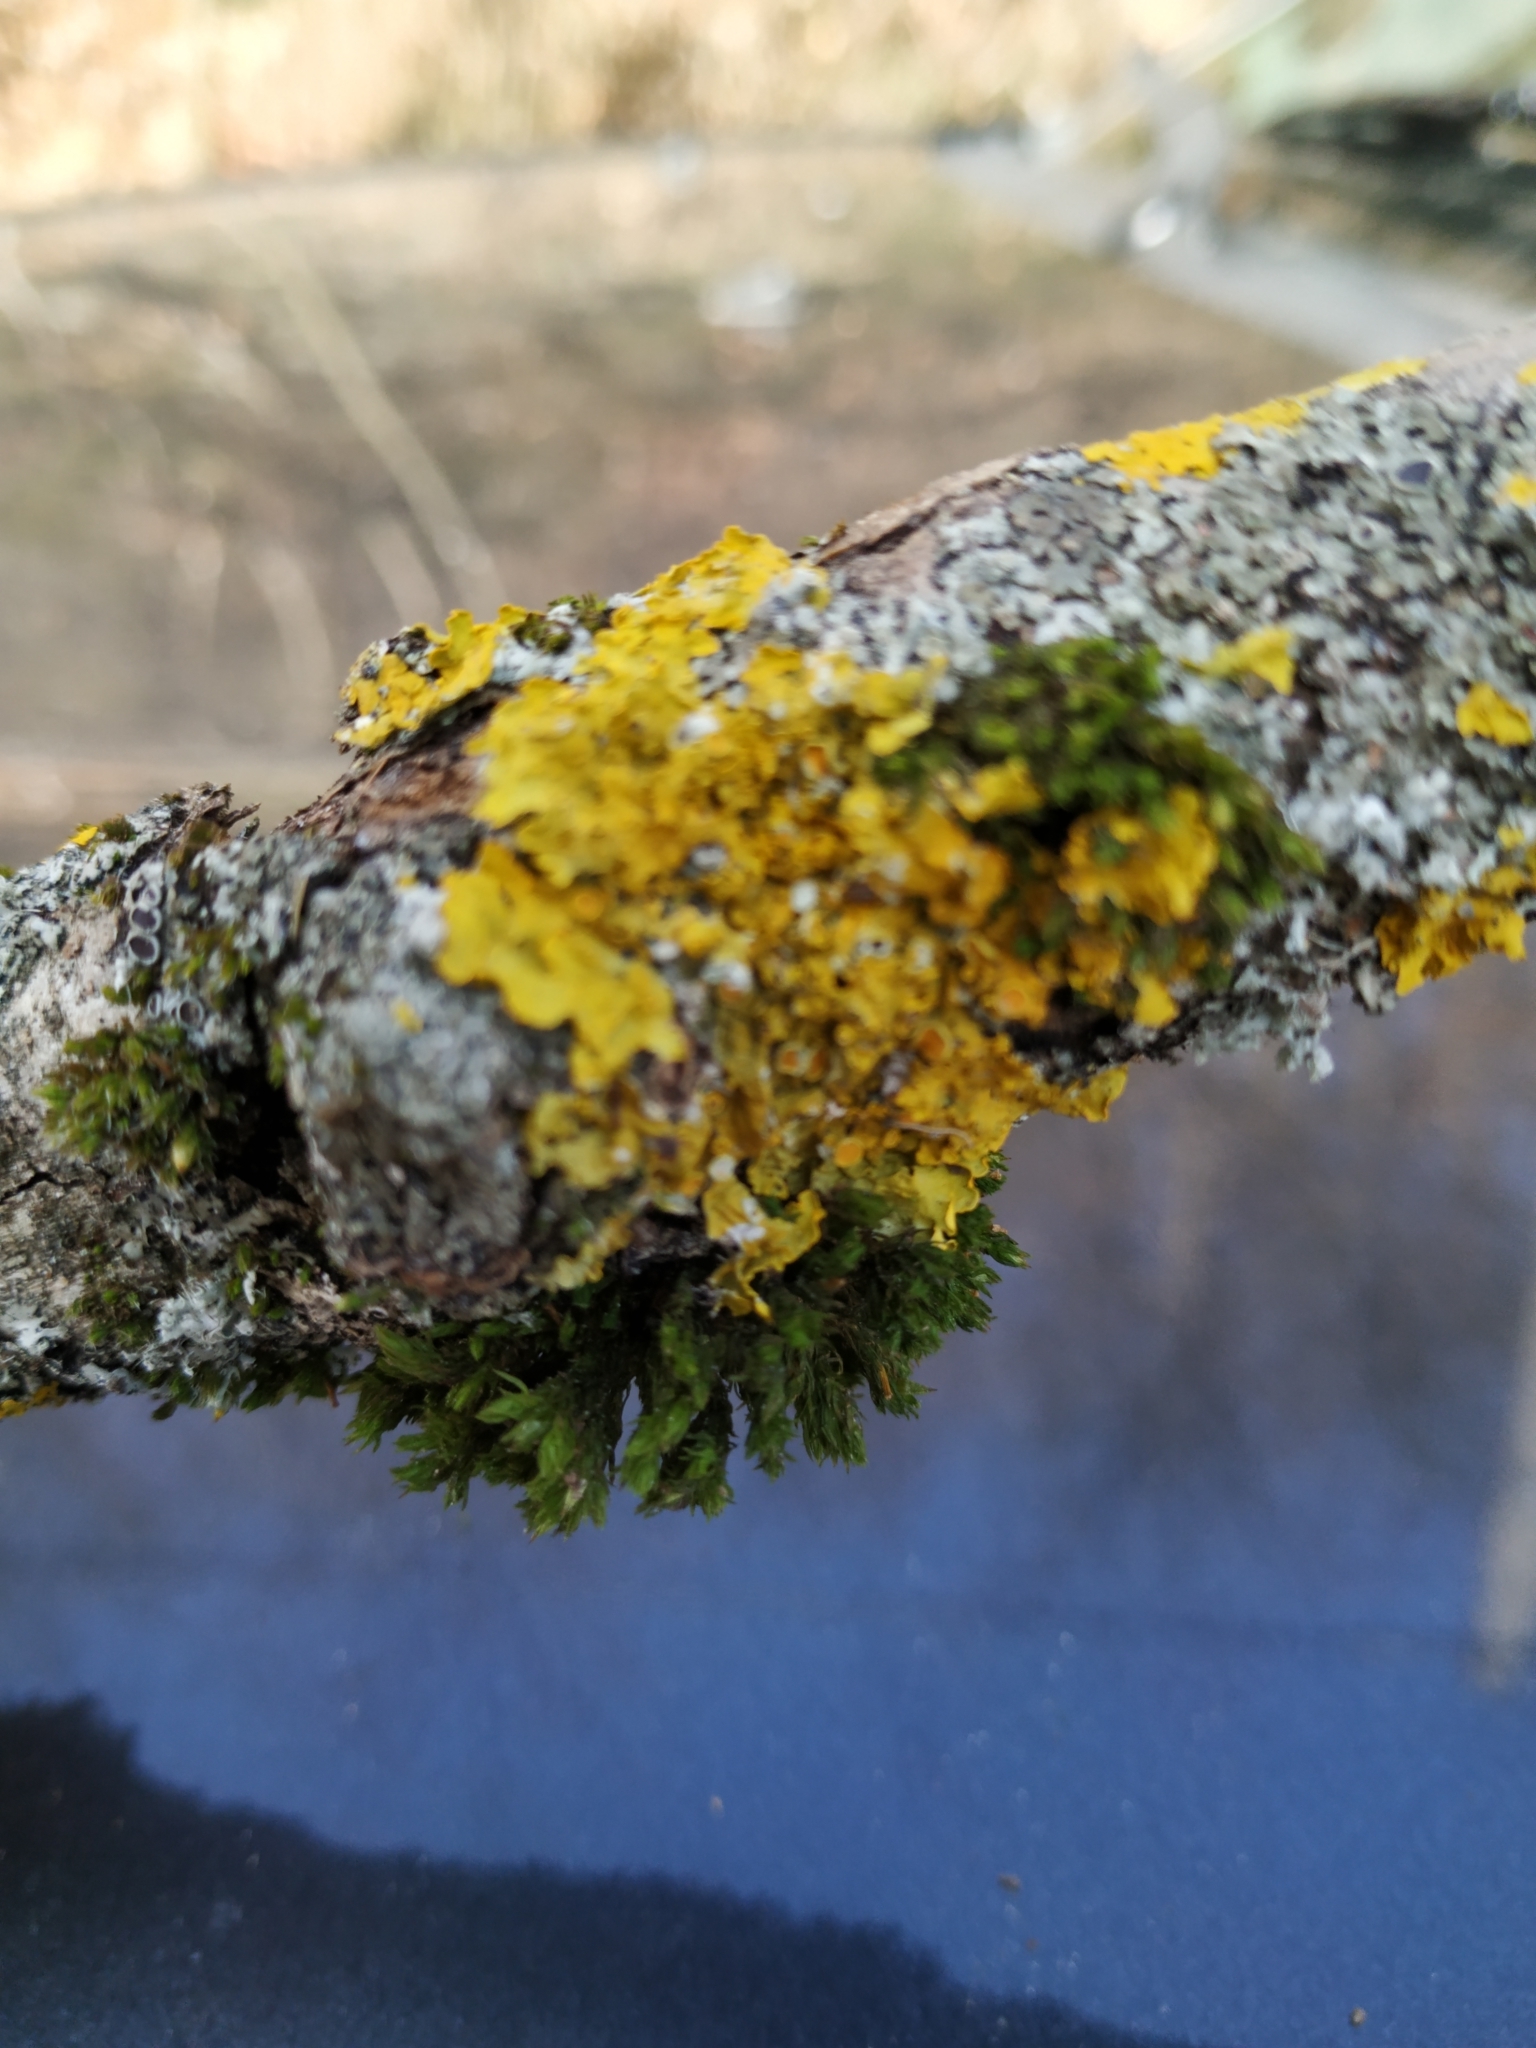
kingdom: Fungi
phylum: Ascomycota
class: Lecanoromycetes
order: Teloschistales
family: Teloschistaceae
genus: Xanthoria
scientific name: Xanthoria parietina
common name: Common orange lichen
